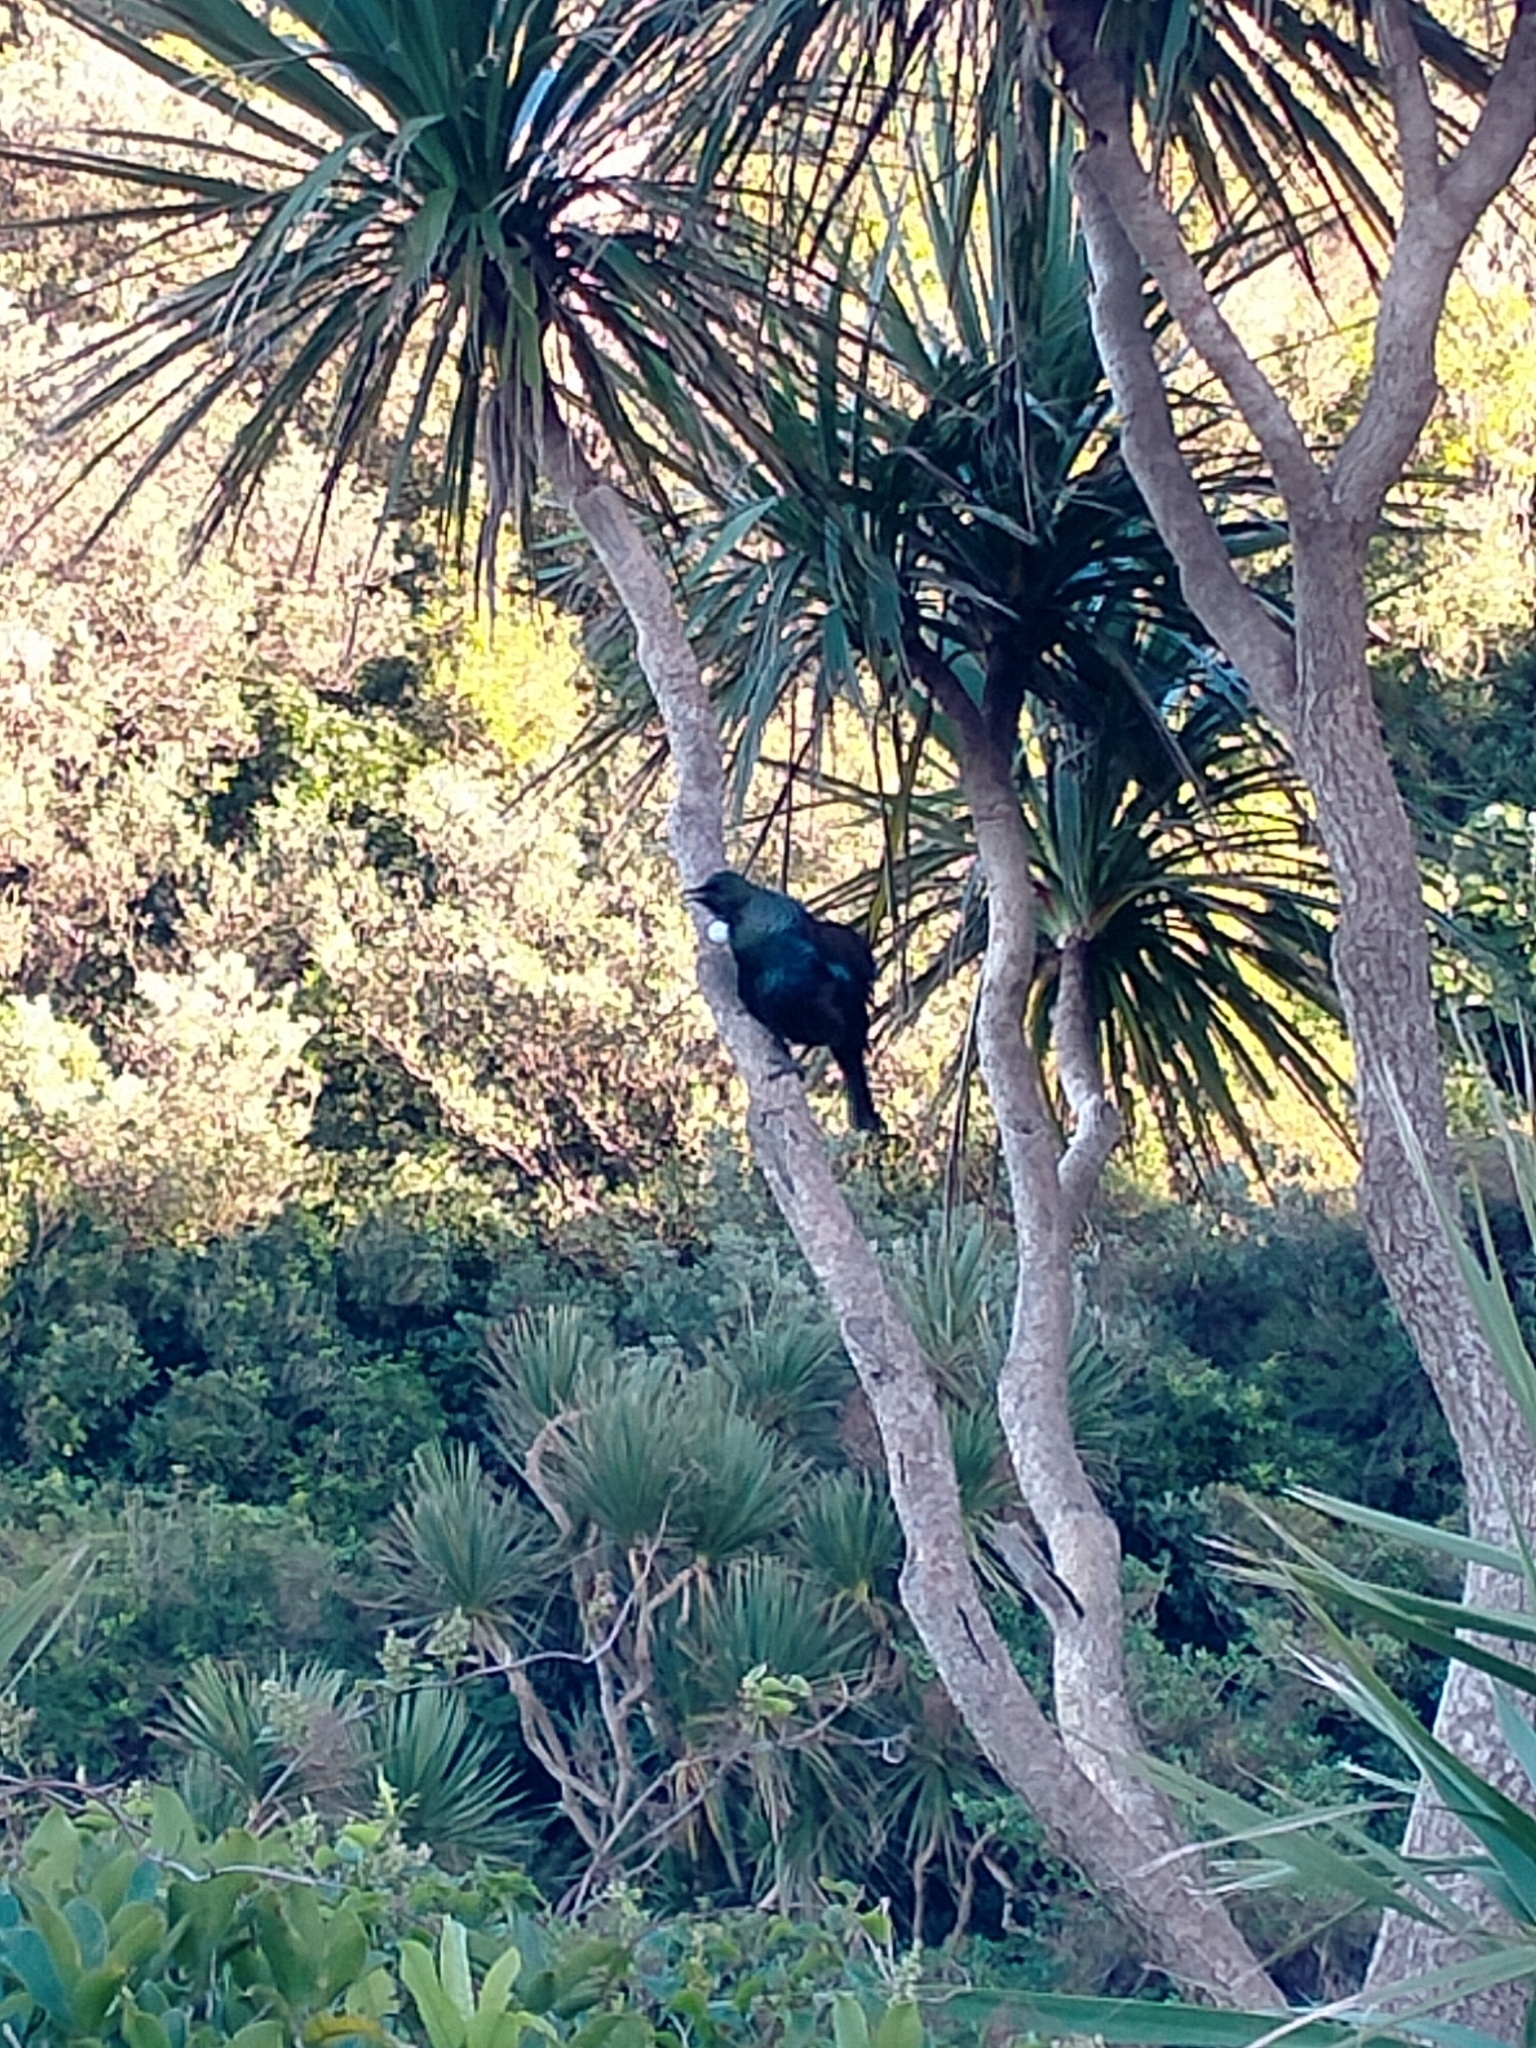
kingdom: Animalia
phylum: Chordata
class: Aves
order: Passeriformes
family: Meliphagidae
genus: Prosthemadera
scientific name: Prosthemadera novaeseelandiae
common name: Tui
